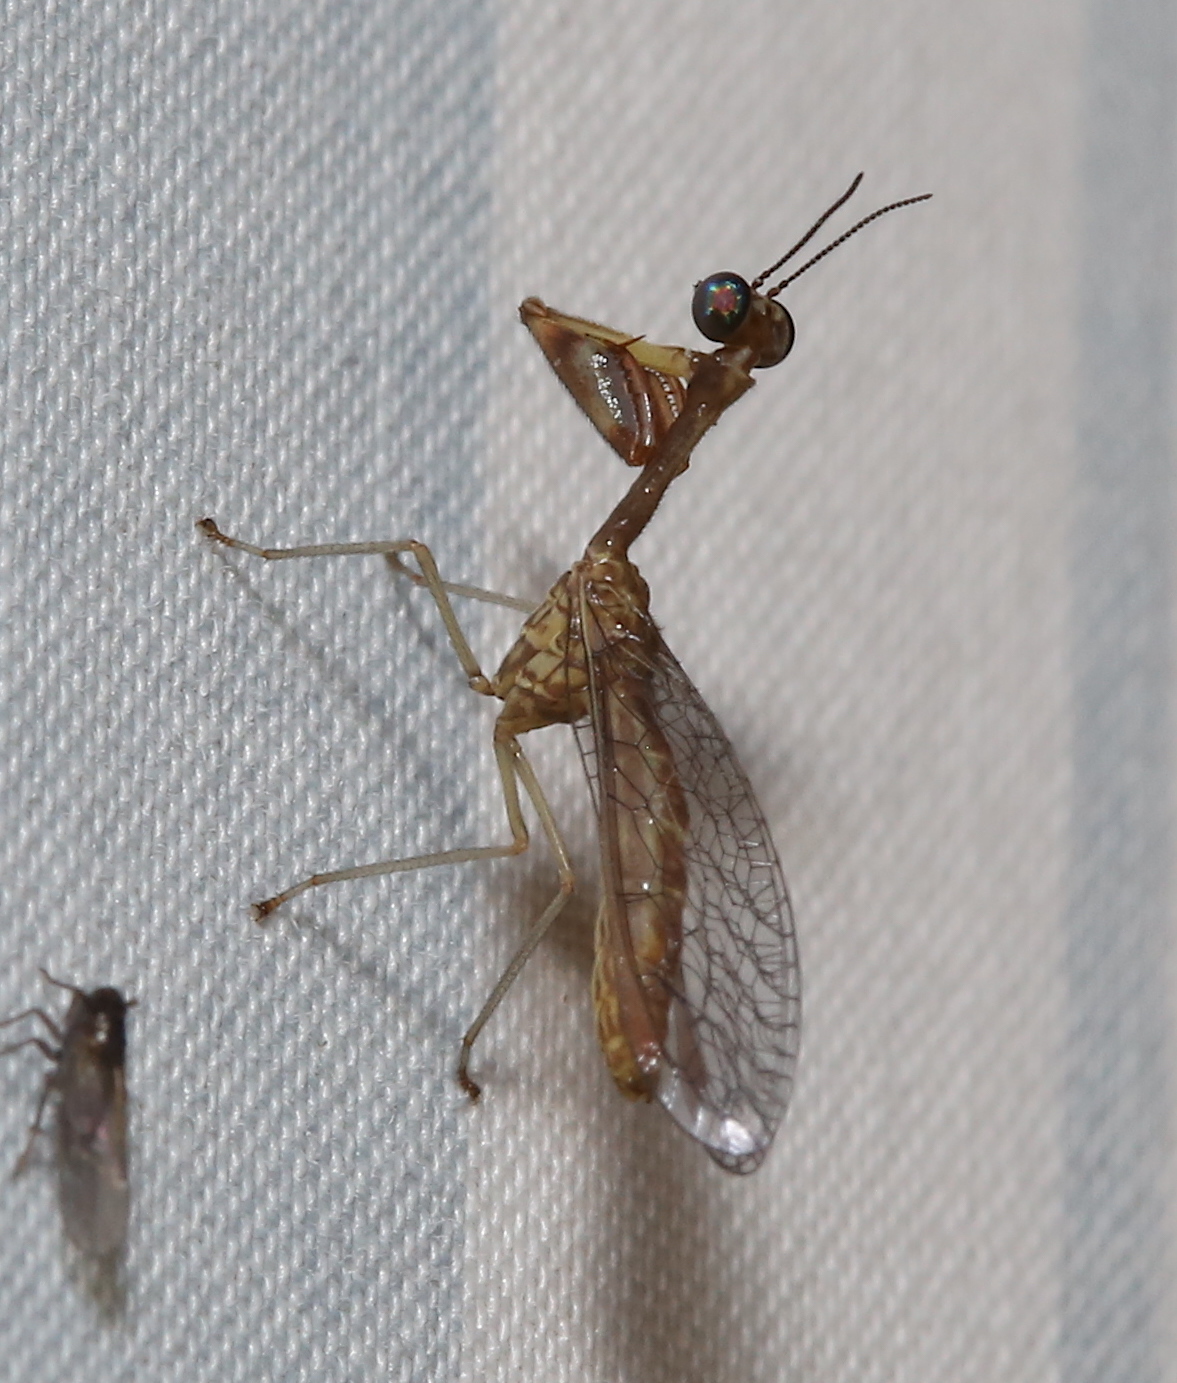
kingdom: Animalia
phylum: Arthropoda
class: Insecta
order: Neuroptera
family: Mantispidae
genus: Leptomantispa
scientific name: Leptomantispa pulchella
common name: Stevens's mantidfly
